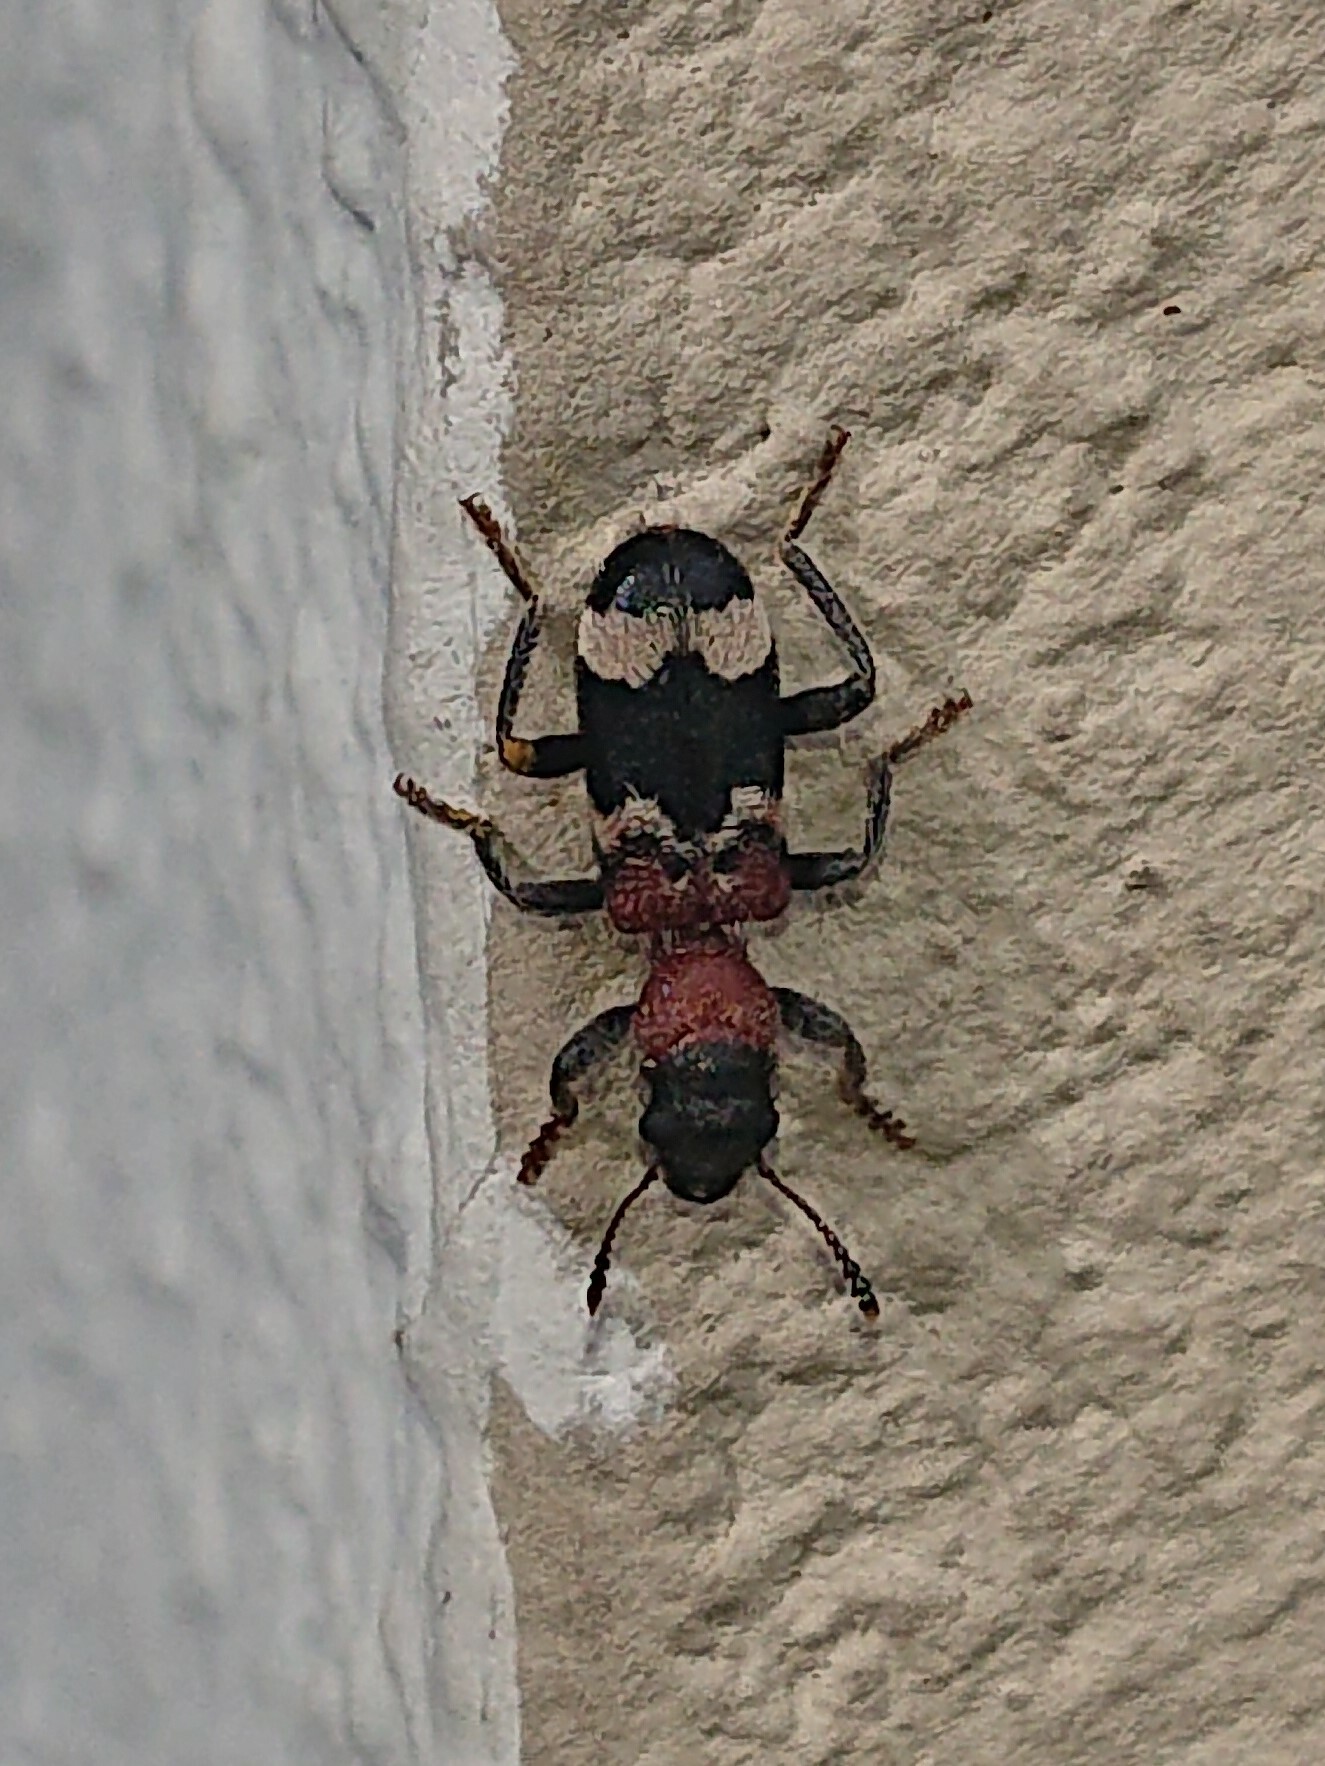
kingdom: Animalia
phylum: Arthropoda
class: Insecta
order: Coleoptera
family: Cleridae
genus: Thanasimus
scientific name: Thanasimus formicarius
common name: Ant beetle
